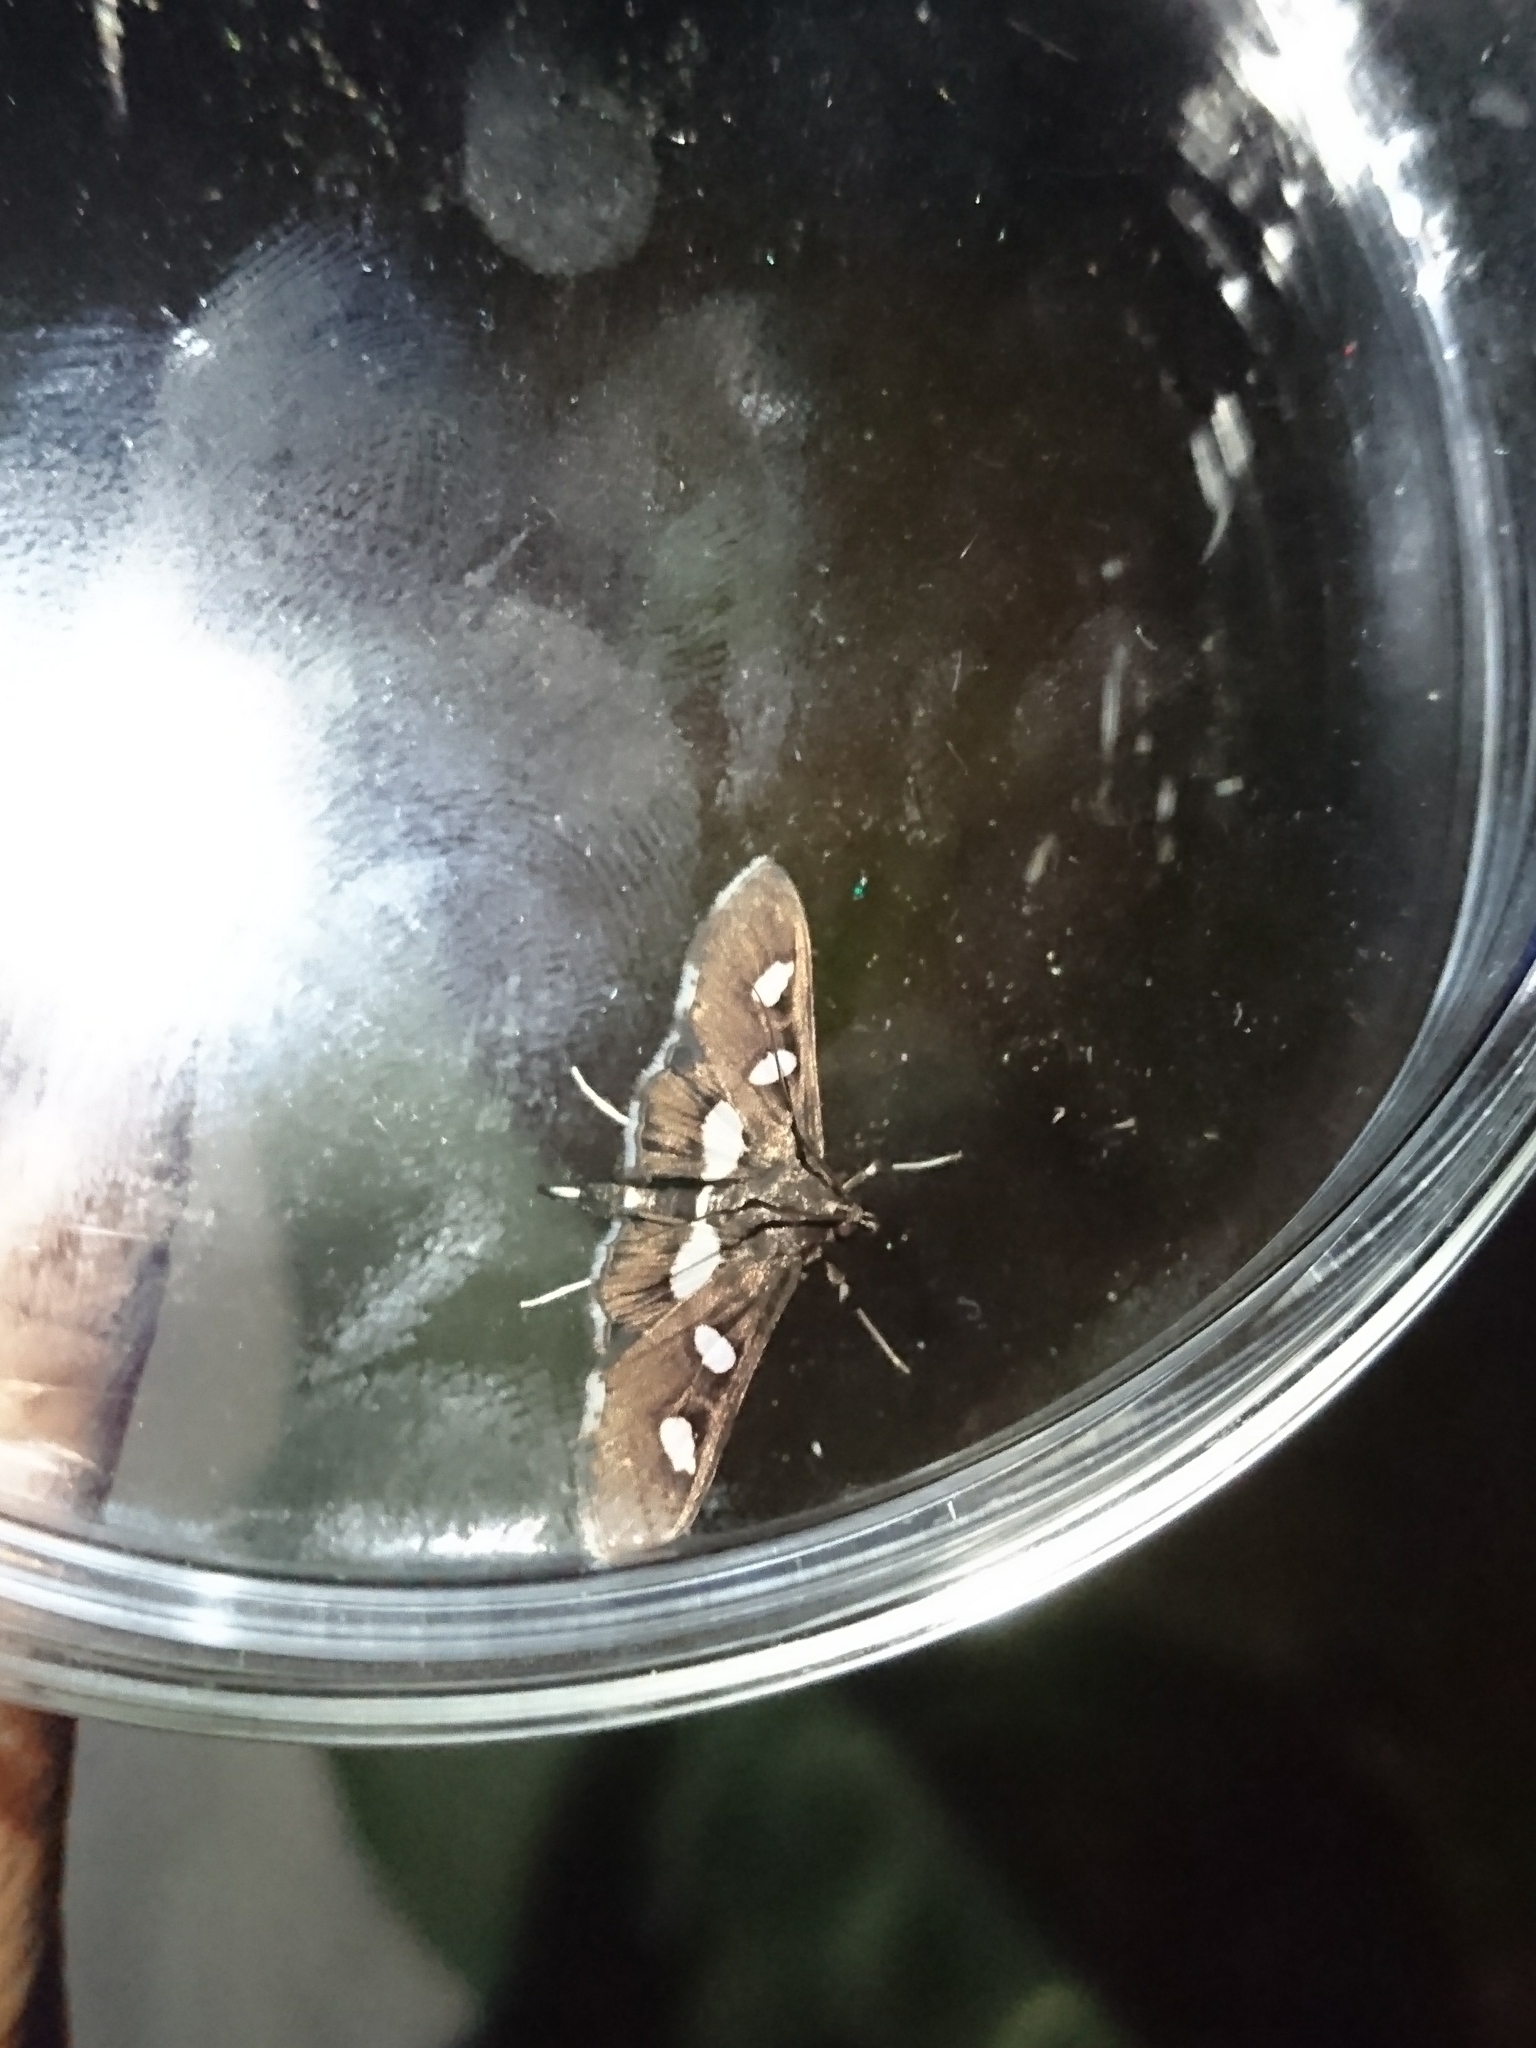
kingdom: Animalia
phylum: Arthropoda
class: Insecta
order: Lepidoptera
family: Crambidae
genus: Desmia
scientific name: Desmia funeralis
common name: Grape leaf folder moth
